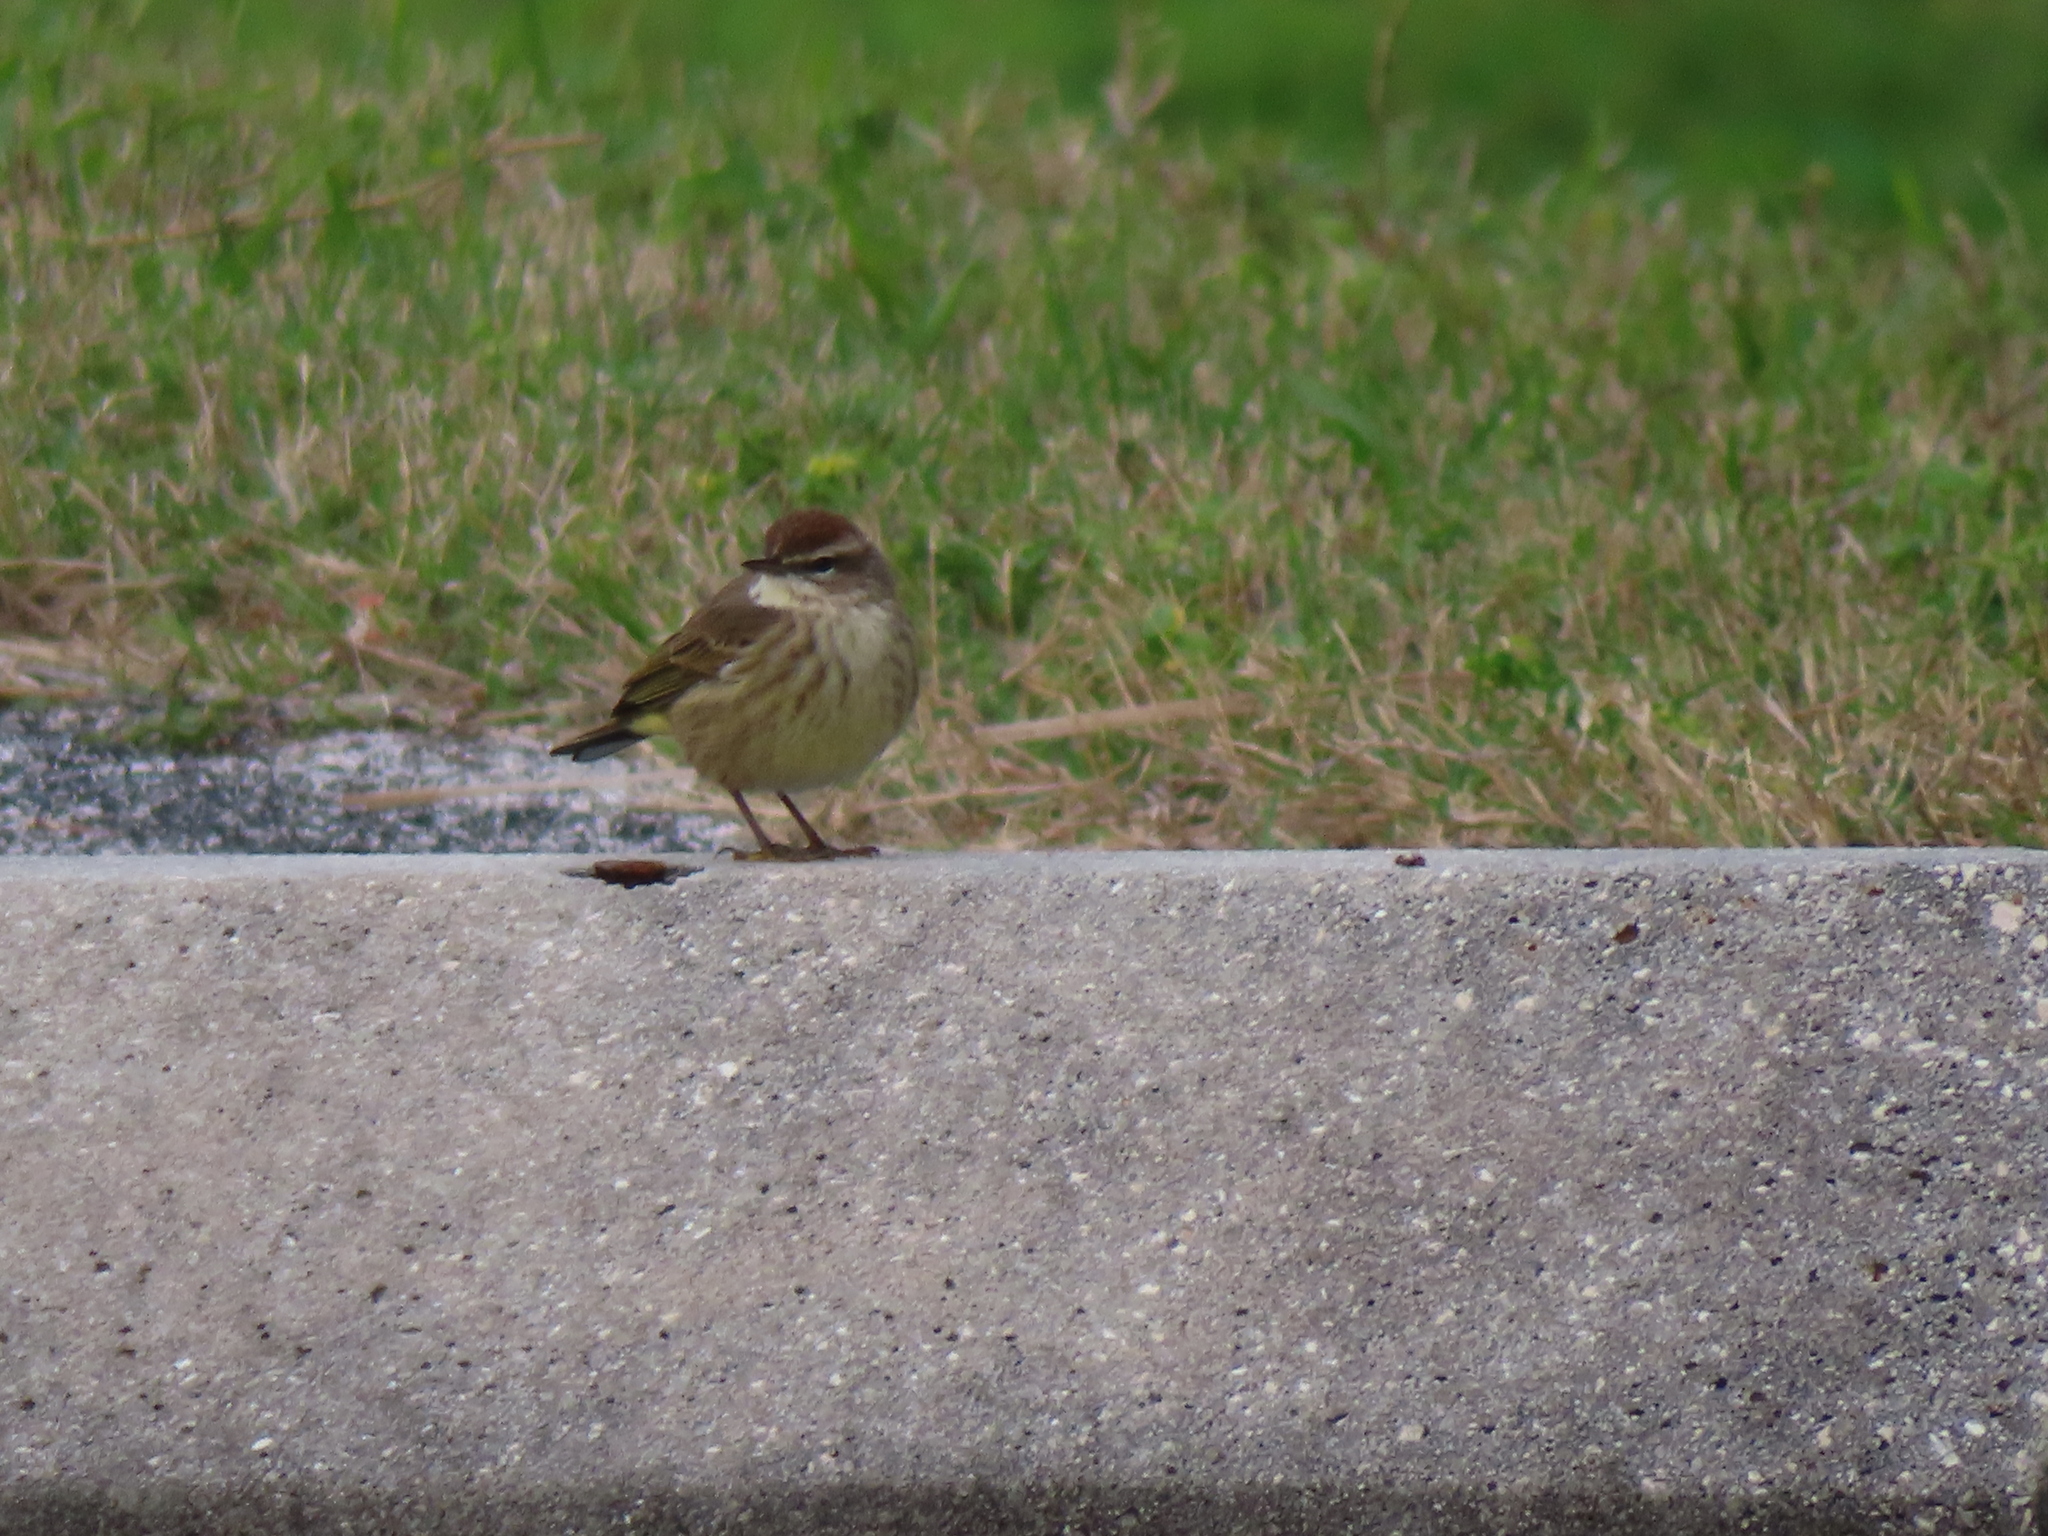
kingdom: Animalia
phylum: Chordata
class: Aves
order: Passeriformes
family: Parulidae
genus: Setophaga
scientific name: Setophaga palmarum
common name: Palm warbler
